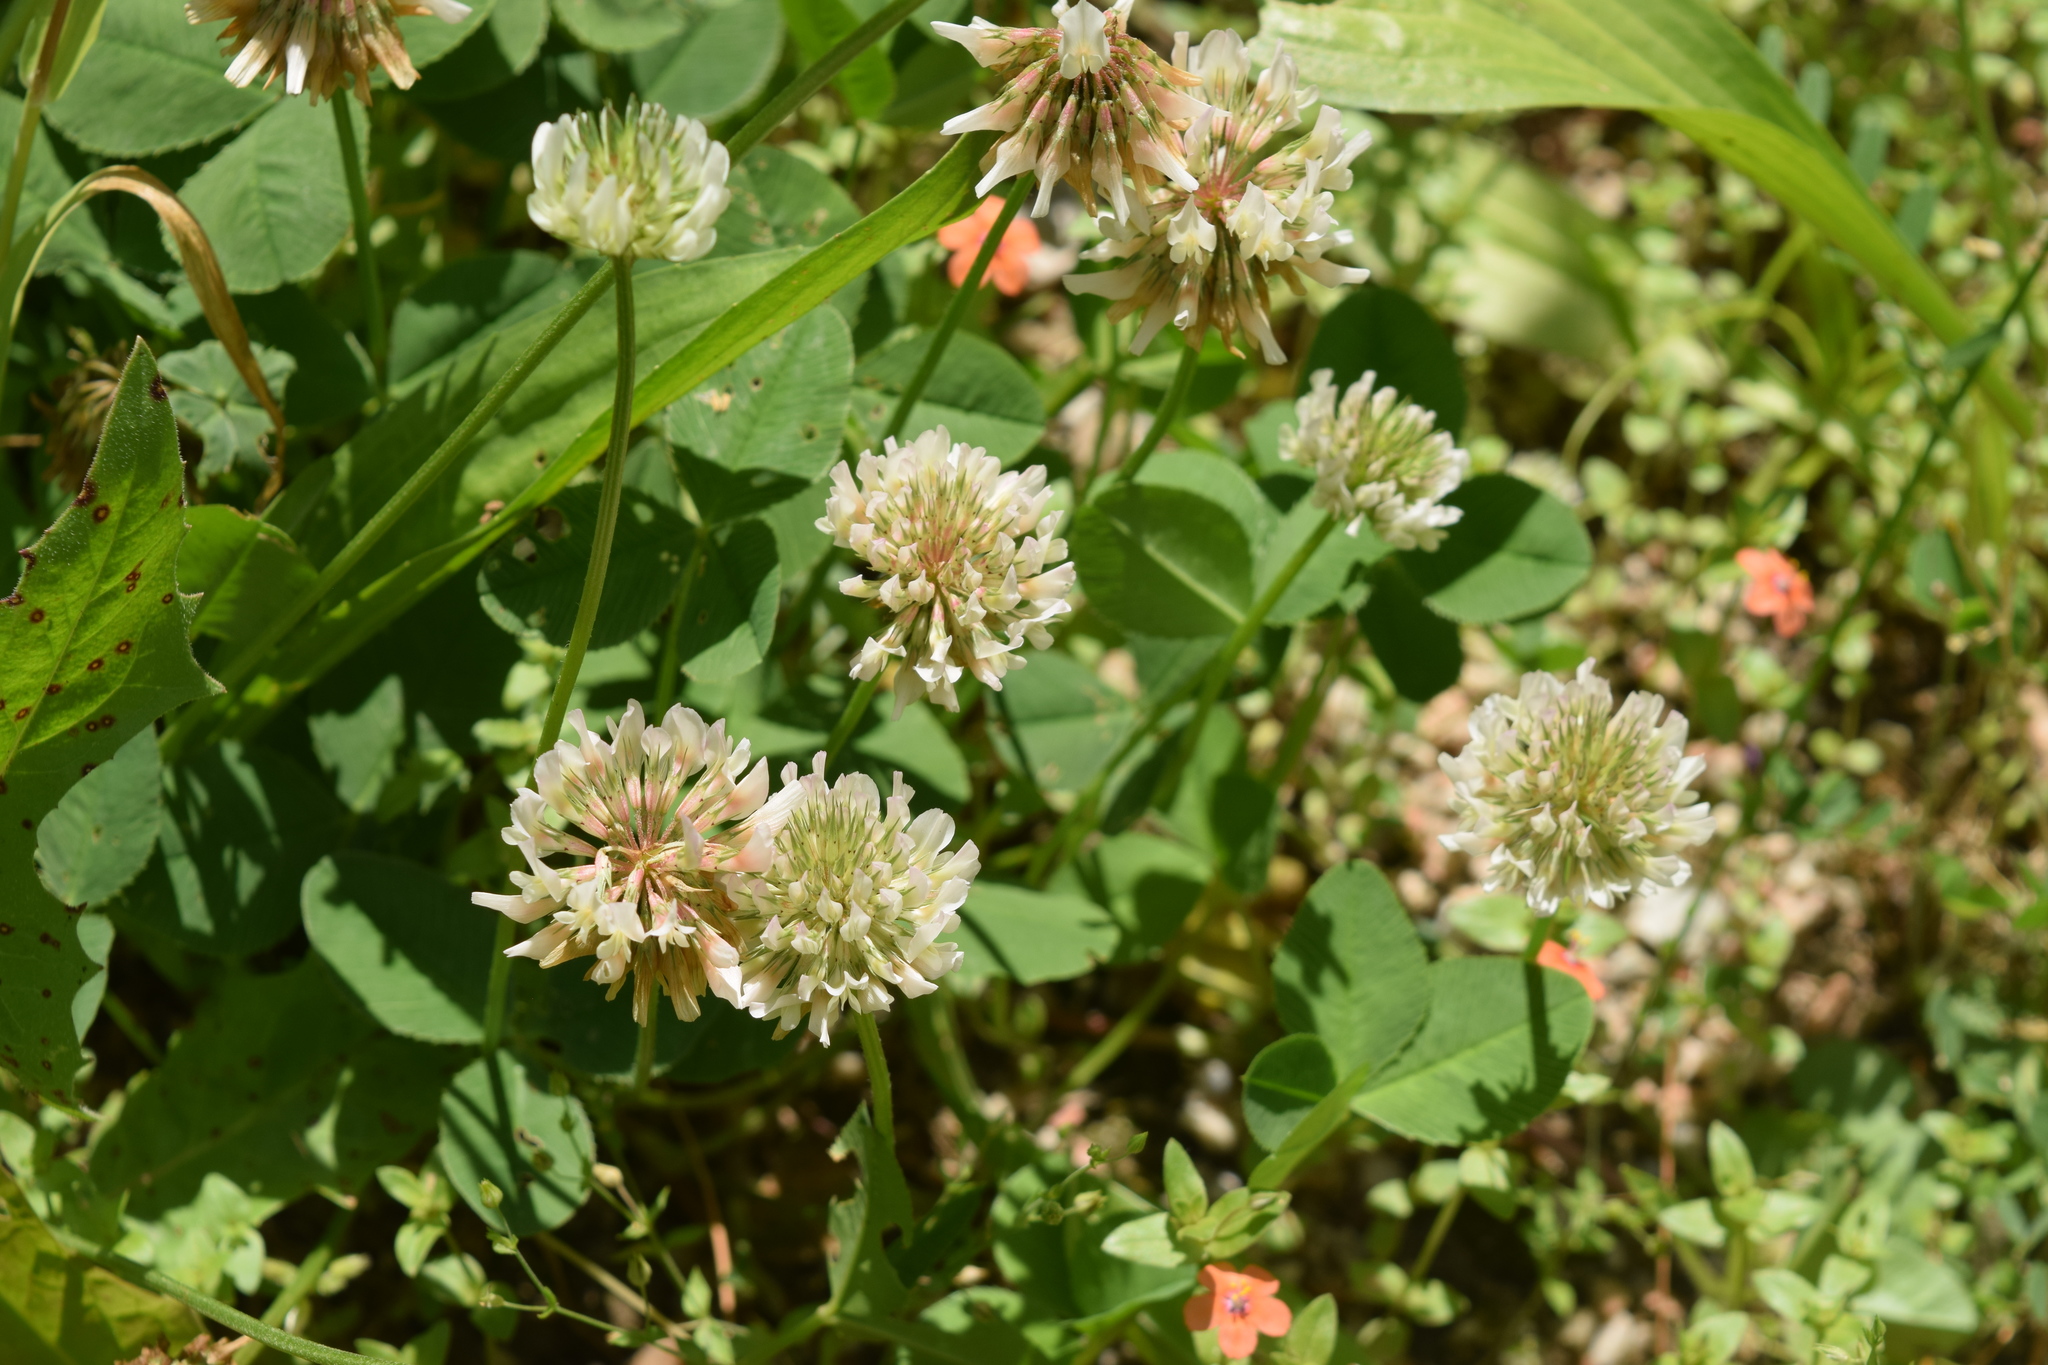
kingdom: Plantae
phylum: Tracheophyta
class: Magnoliopsida
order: Fabales
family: Fabaceae
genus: Trifolium
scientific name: Trifolium repens
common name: White clover
